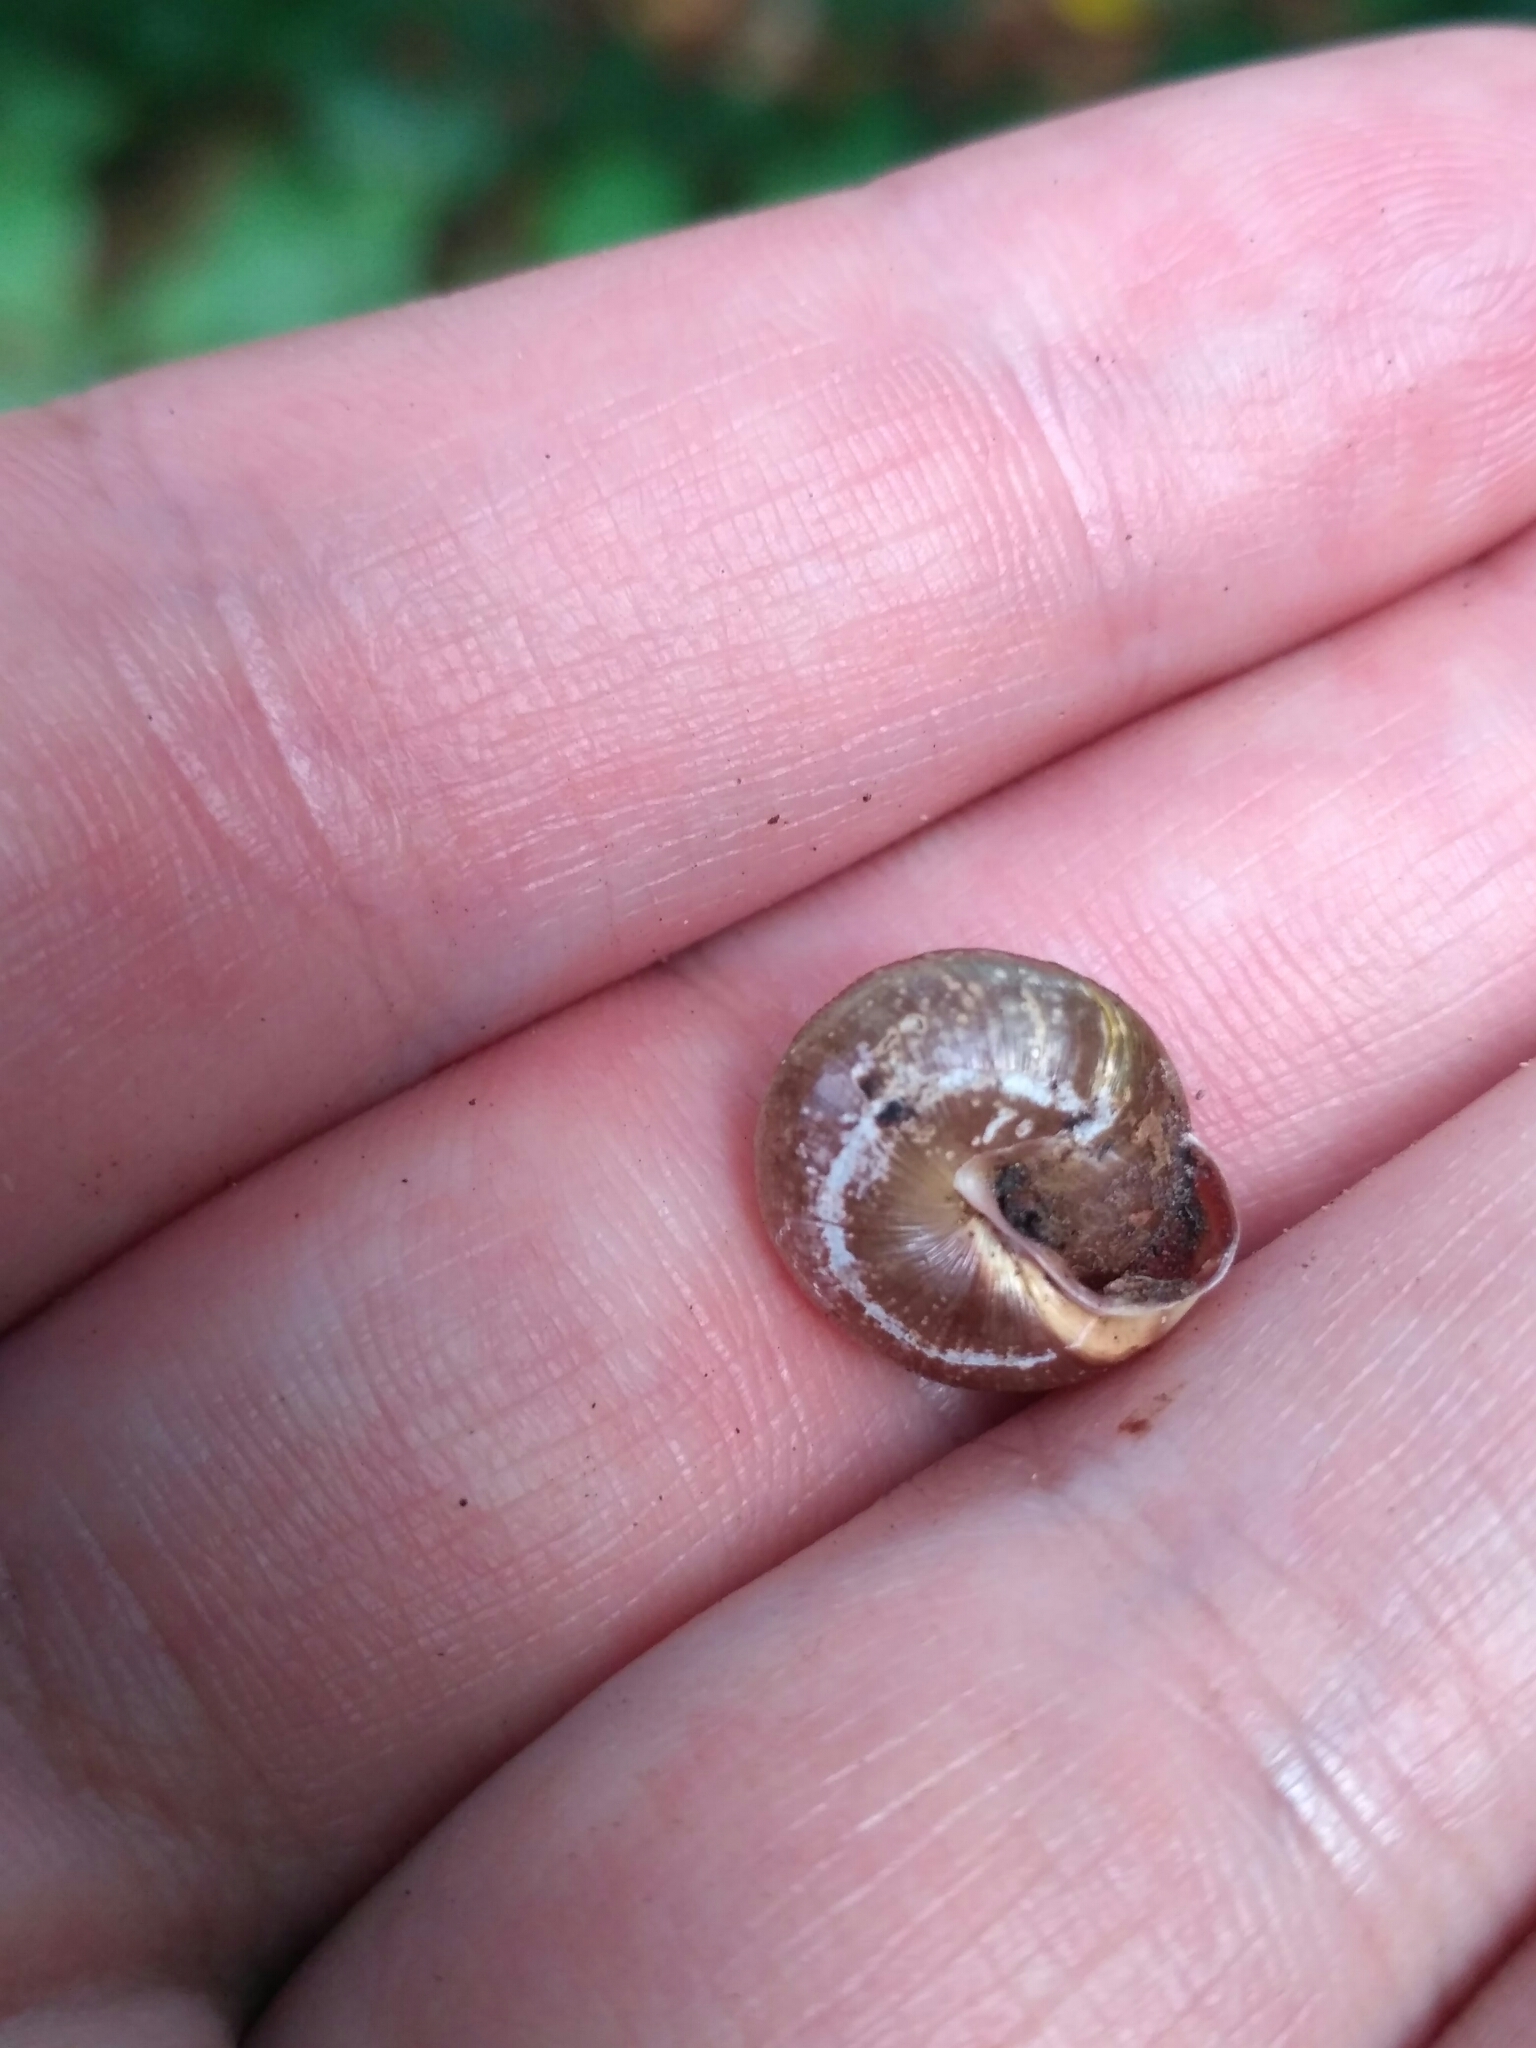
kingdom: Animalia
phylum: Mollusca
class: Gastropoda
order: Stylommatophora
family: Hygromiidae
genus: Perforatella
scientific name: Perforatella dibothrion
